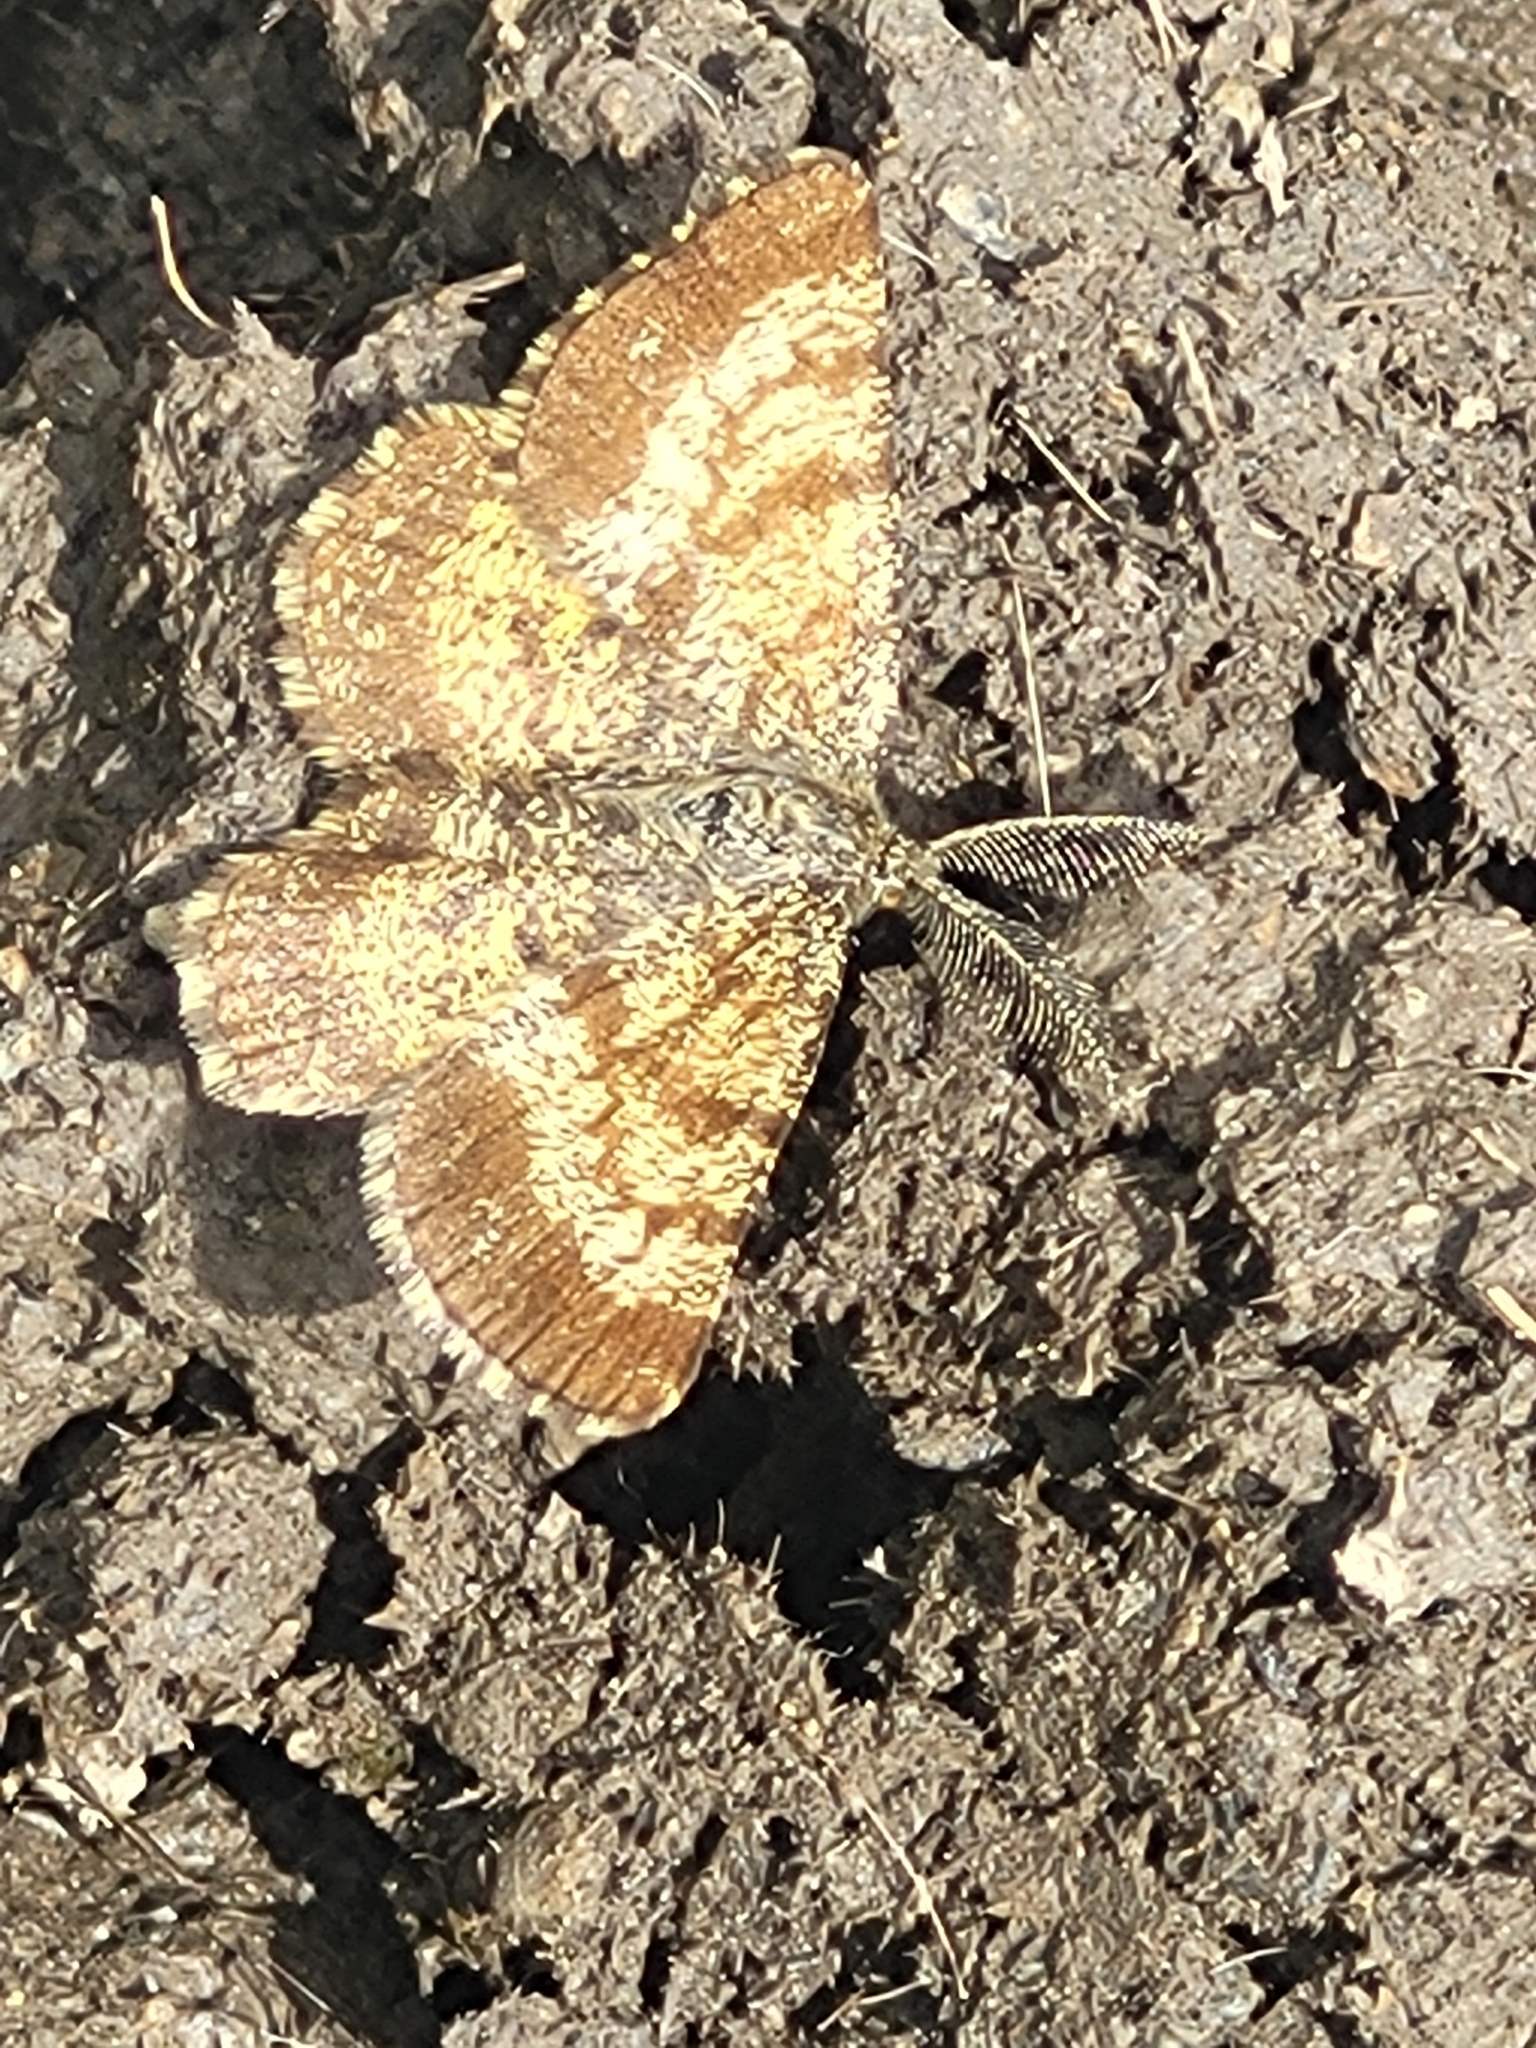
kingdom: Animalia
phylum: Arthropoda
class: Insecta
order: Lepidoptera
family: Geometridae
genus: Ematurga
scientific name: Ematurga atomaria
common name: Common heath
